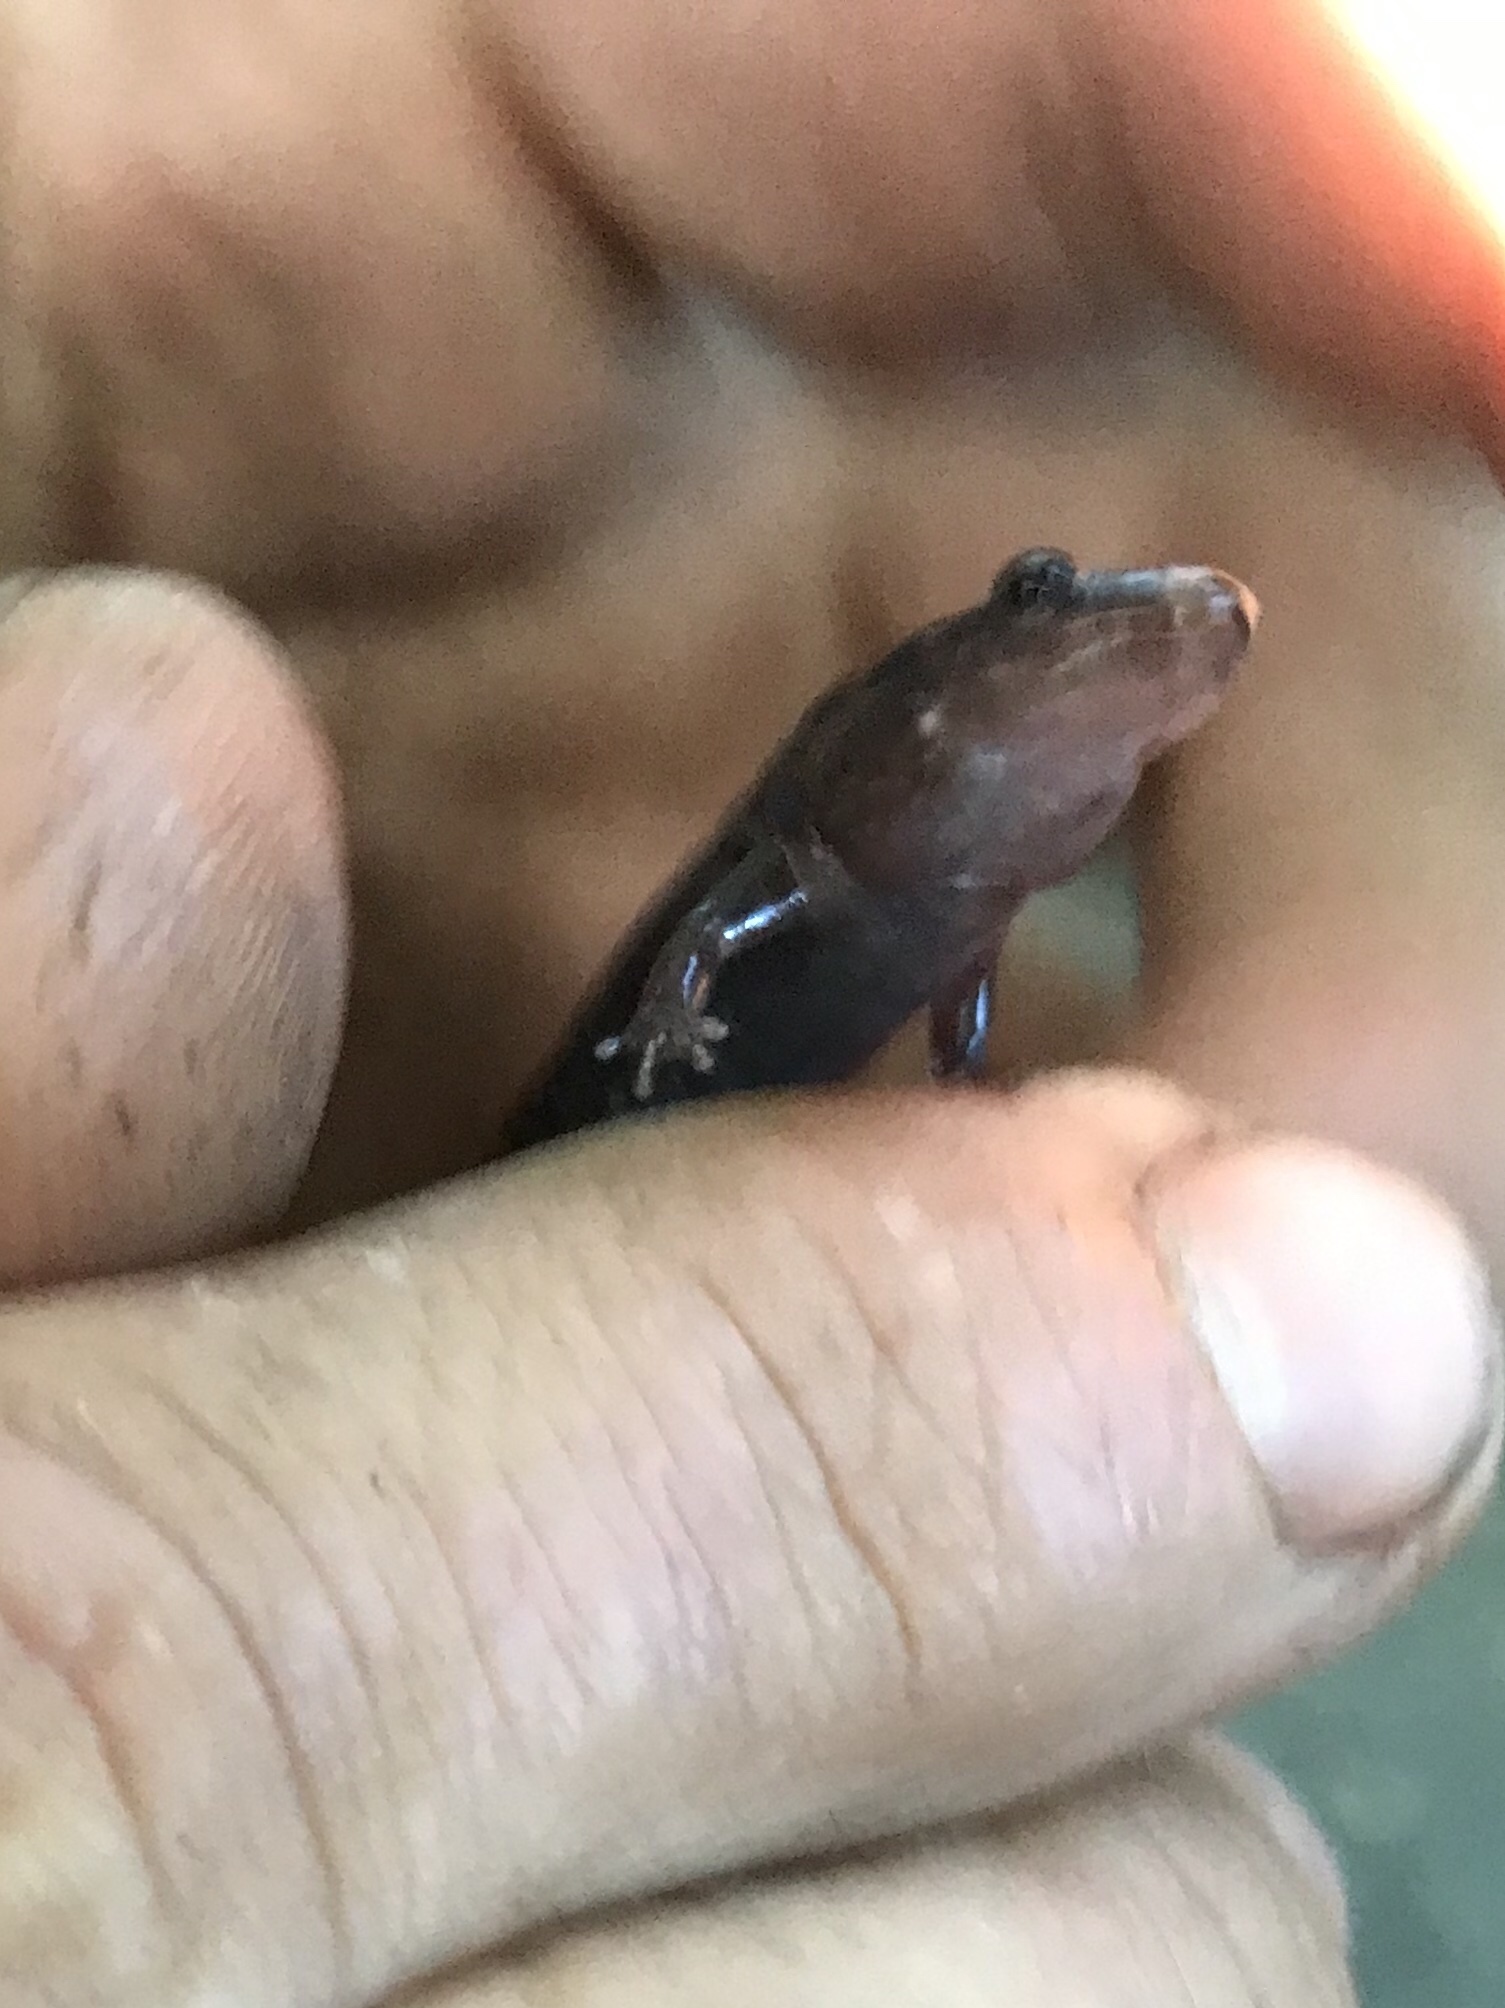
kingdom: Animalia
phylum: Chordata
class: Amphibia
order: Caudata
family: Plethodontidae
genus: Desmognathus
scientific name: Desmognathus fuscus
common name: Northern dusky salamander
